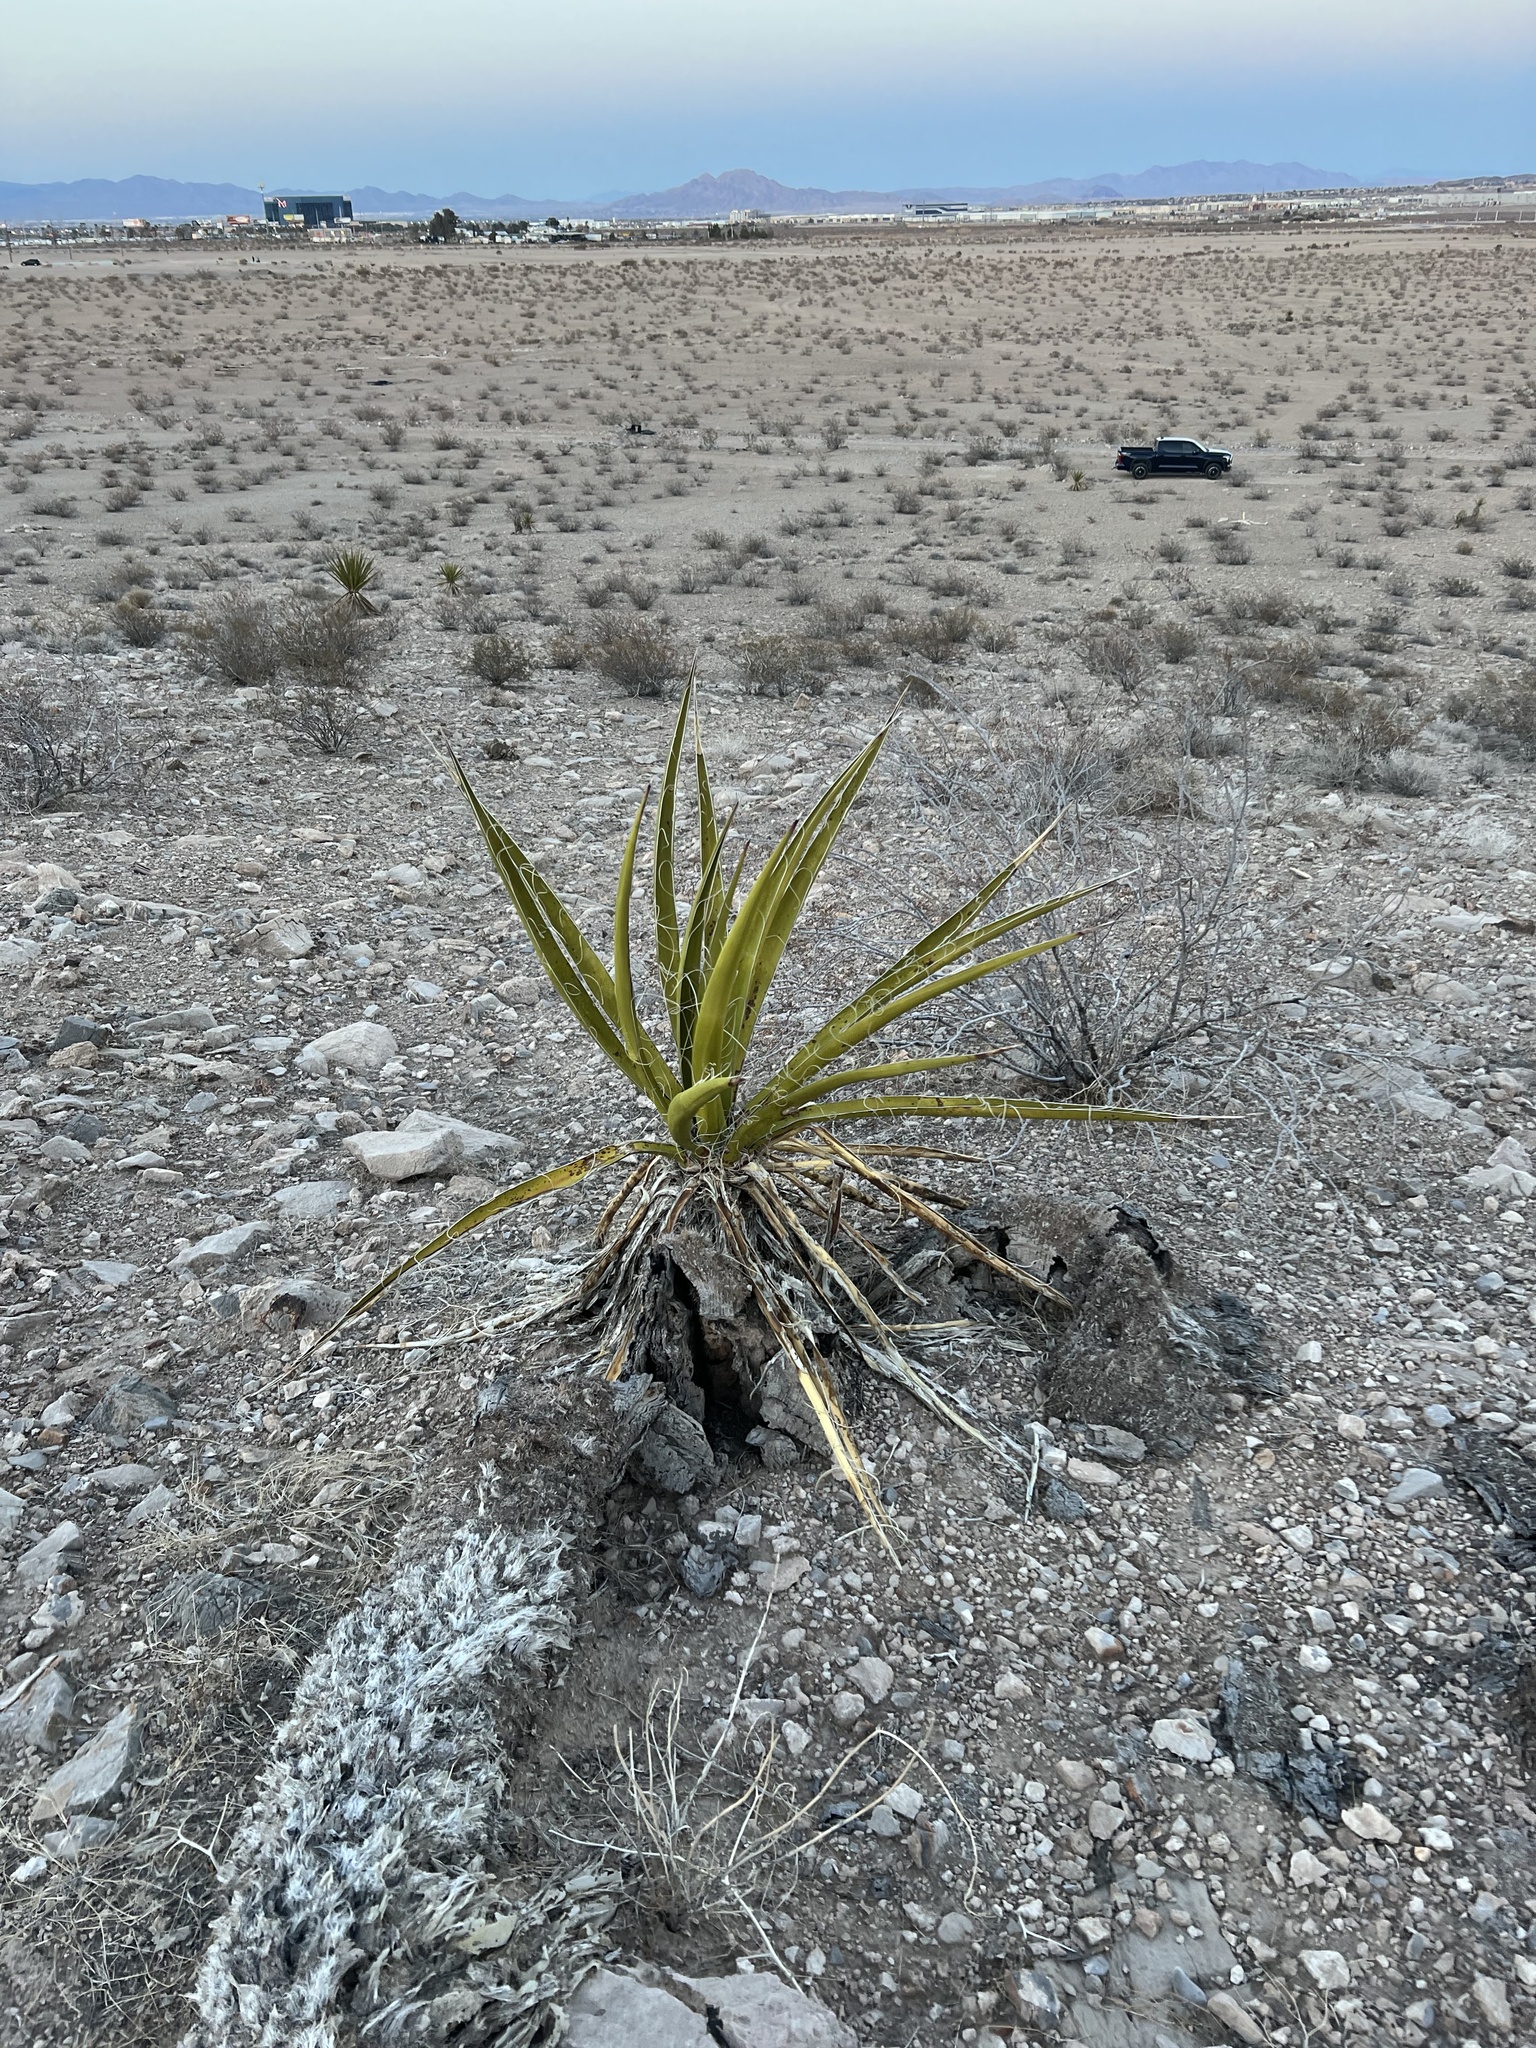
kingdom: Plantae
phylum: Tracheophyta
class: Liliopsida
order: Asparagales
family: Asparagaceae
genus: Yucca
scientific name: Yucca schidigera
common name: Mojave yucca
